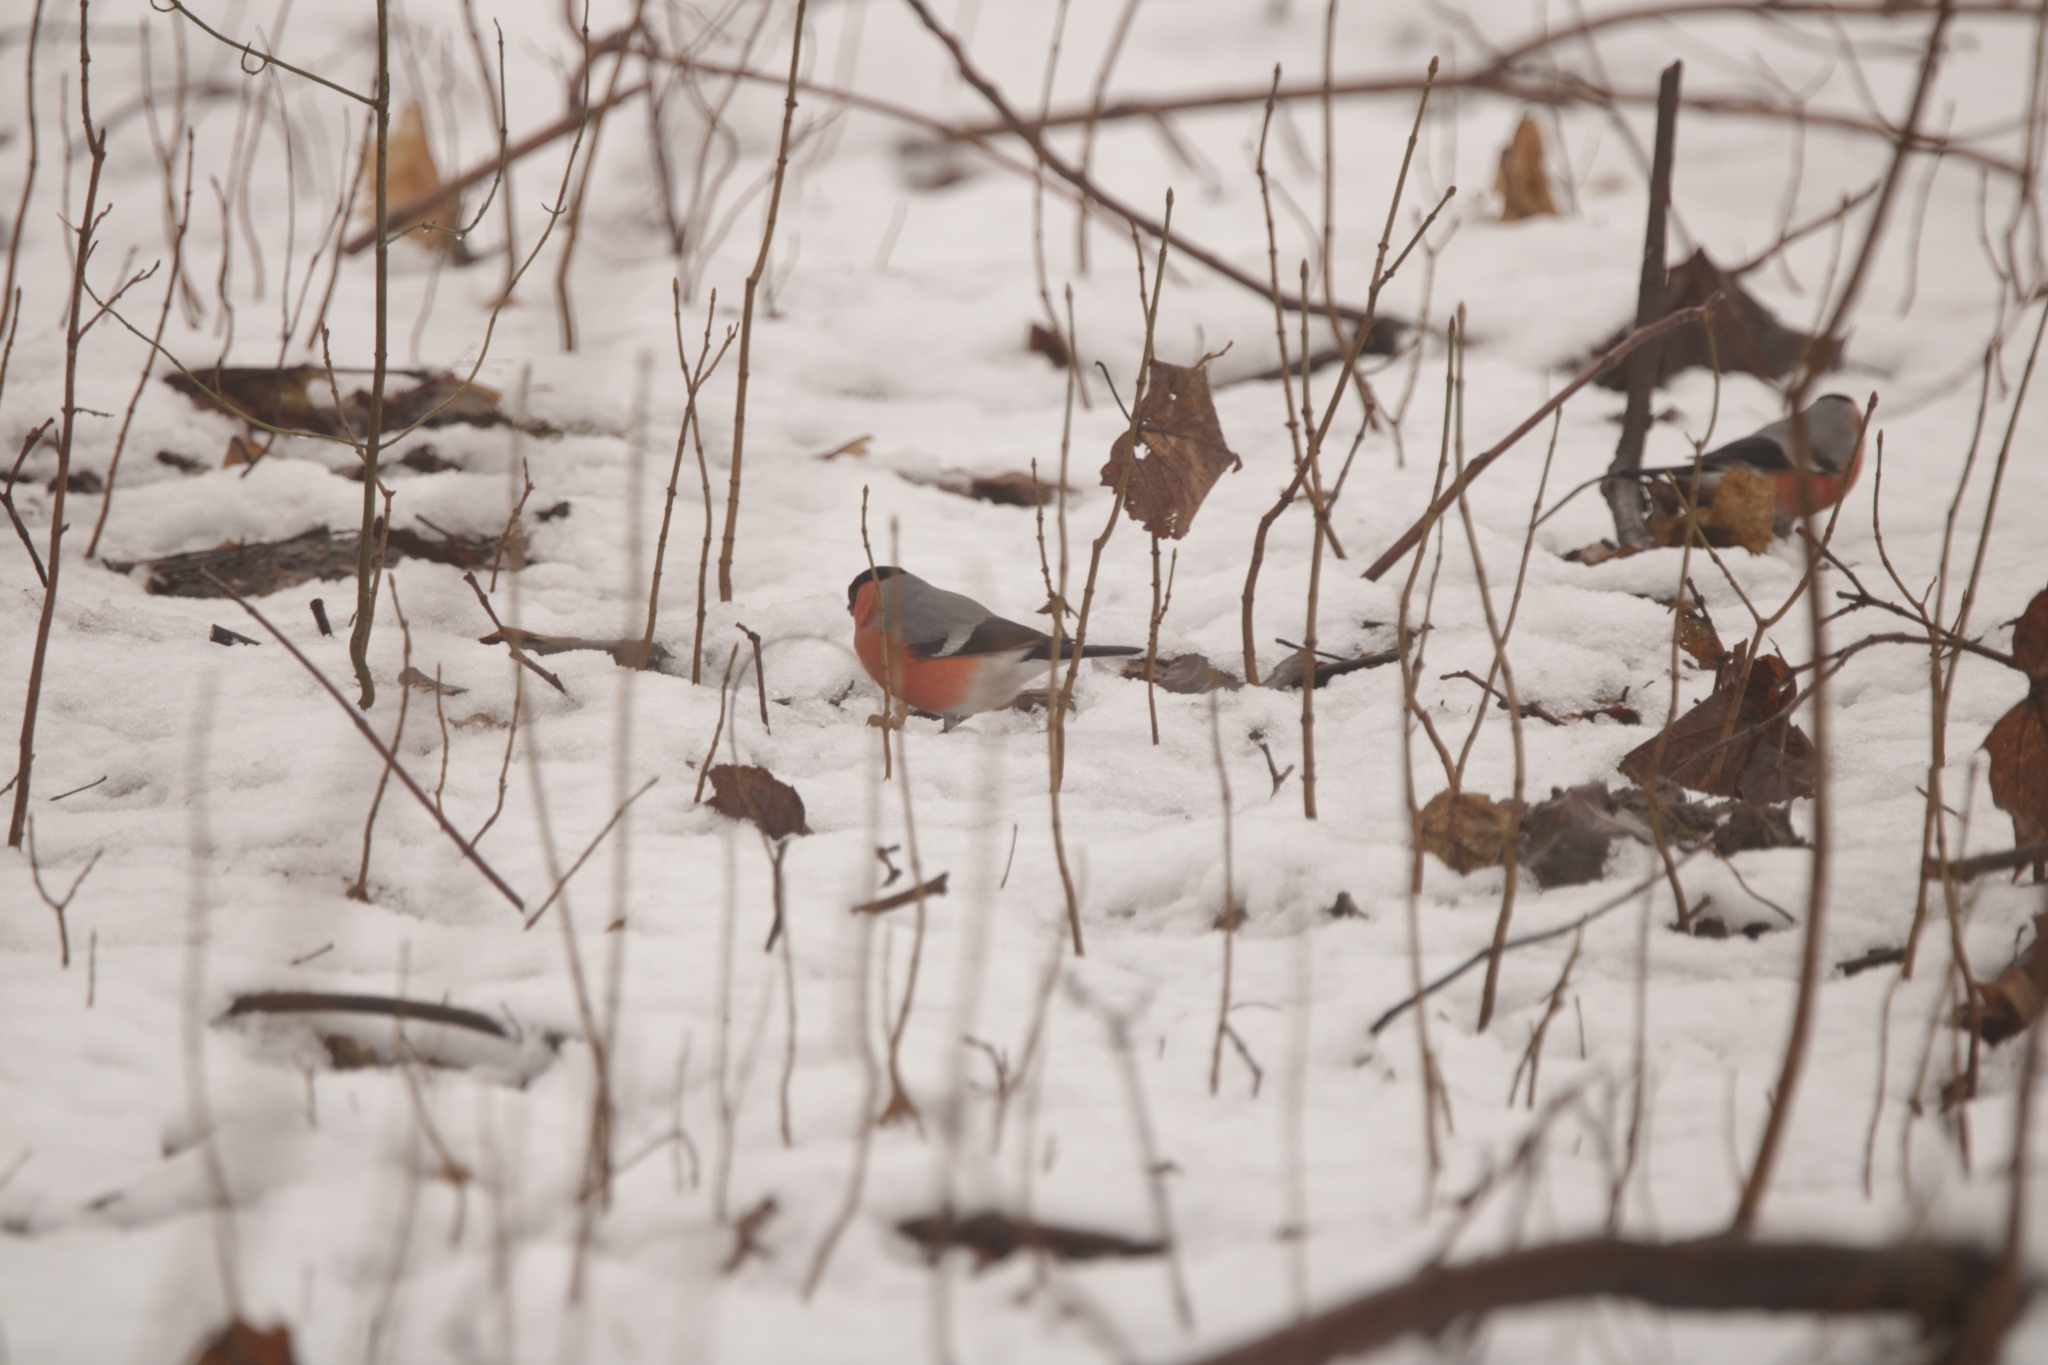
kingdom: Animalia
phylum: Chordata
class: Aves
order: Passeriformes
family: Fringillidae
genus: Pyrrhula
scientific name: Pyrrhula pyrrhula
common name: Eurasian bullfinch
